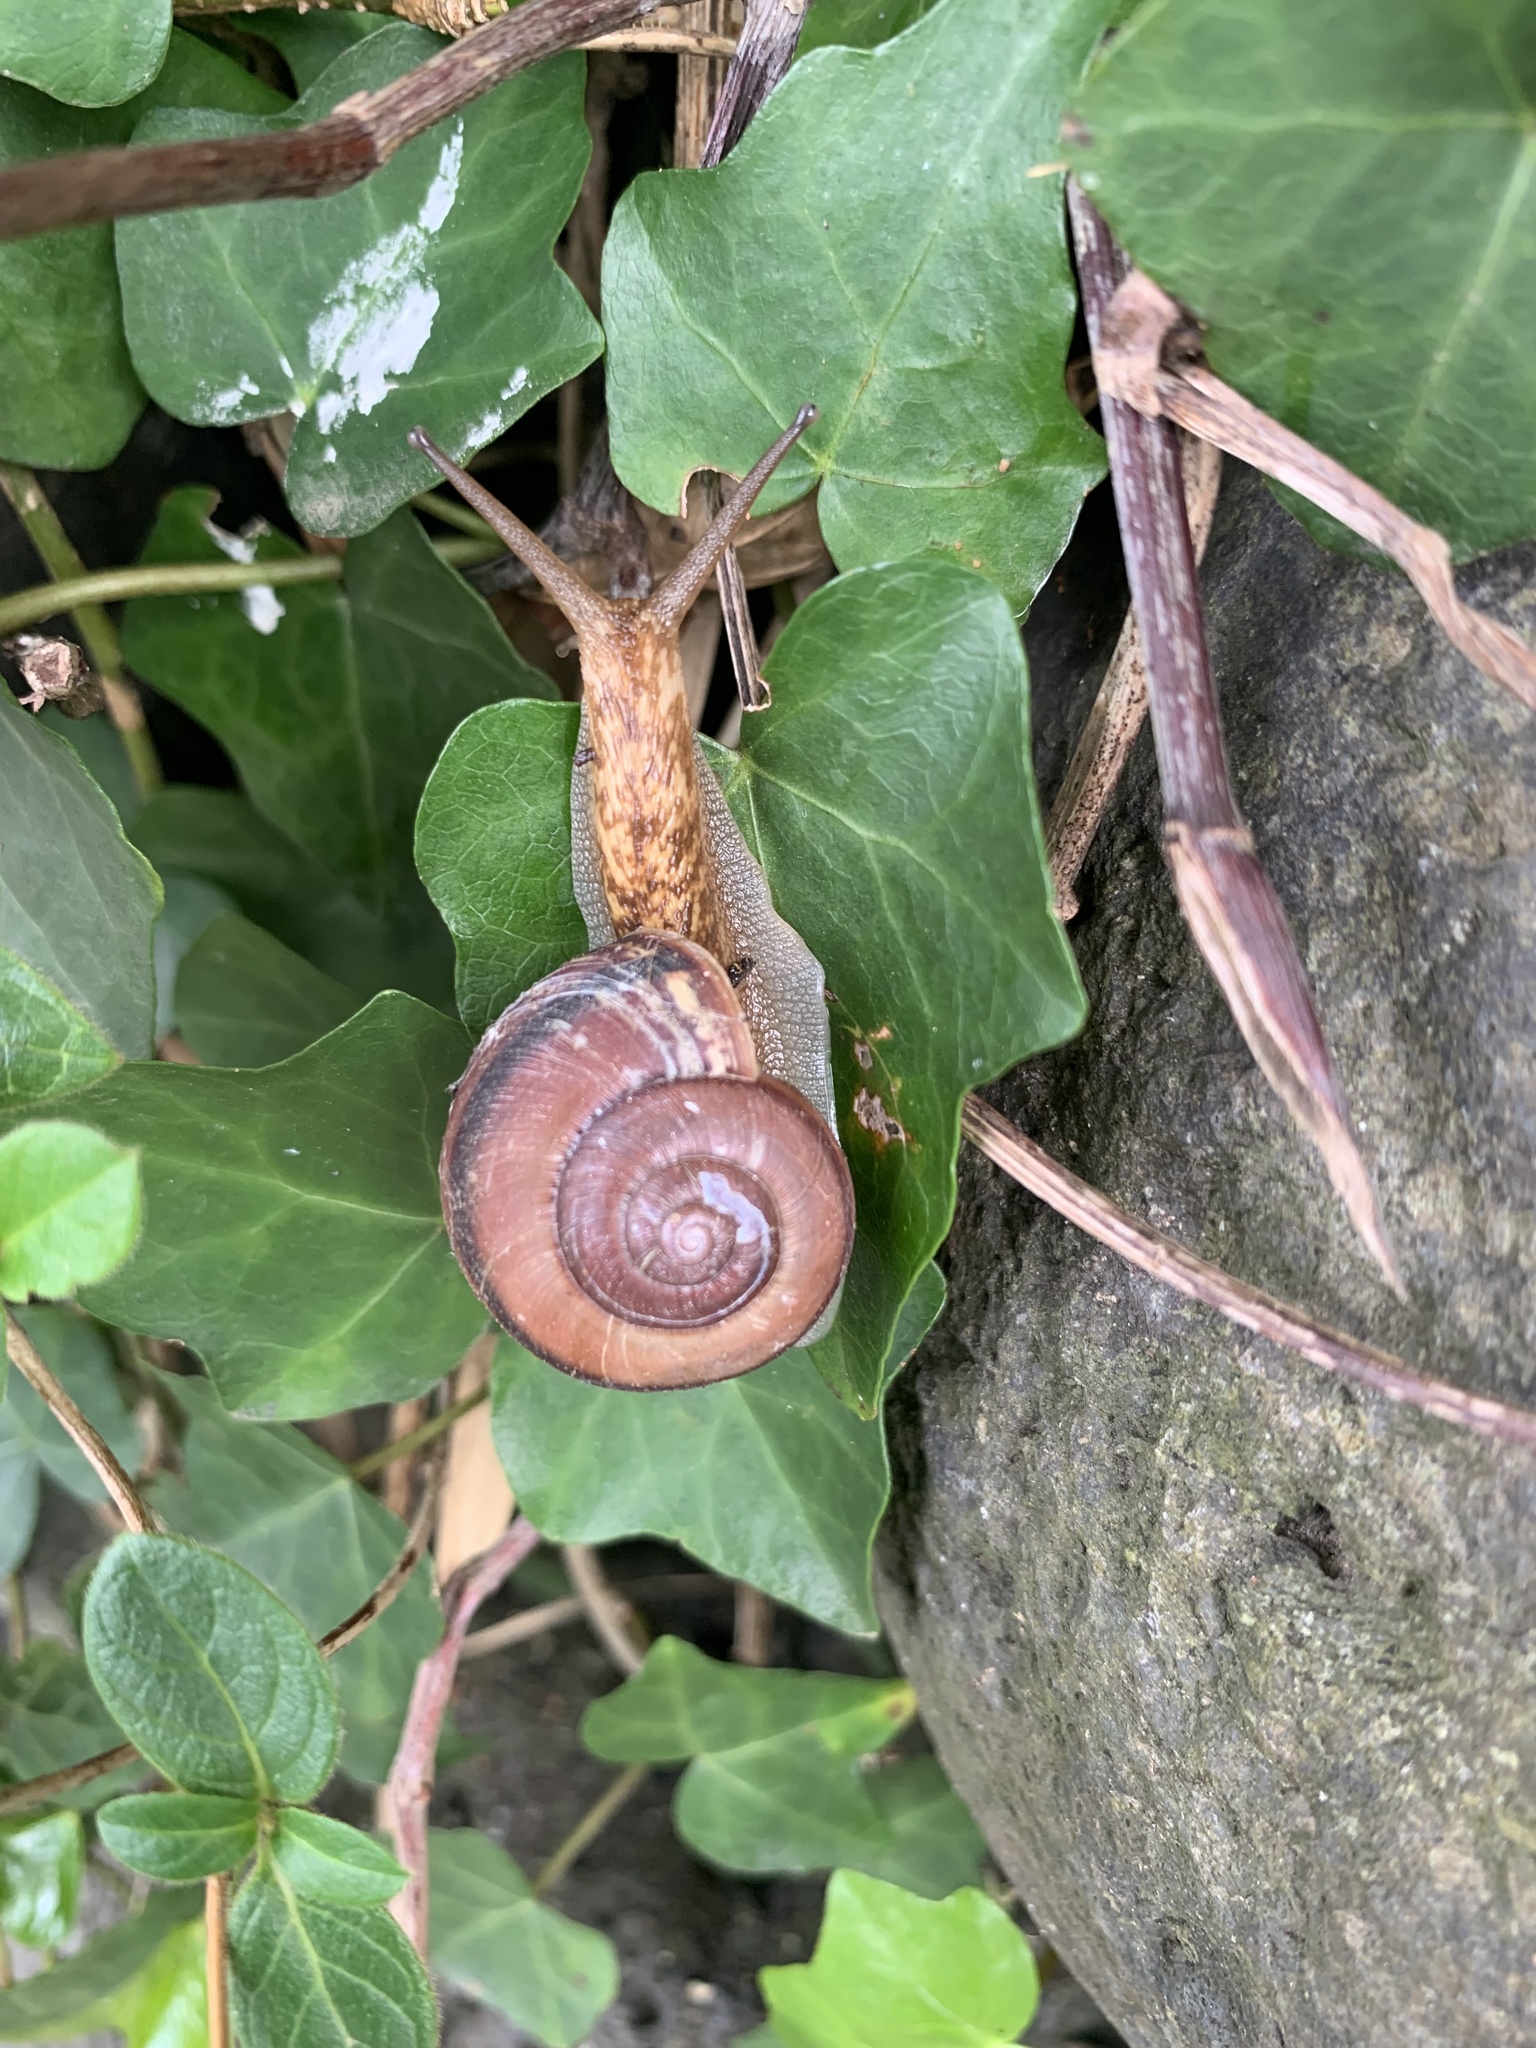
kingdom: Animalia
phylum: Mollusca
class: Gastropoda
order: Stylommatophora
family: Camaenidae
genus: Euhadra
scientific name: Euhadra peliomphala
